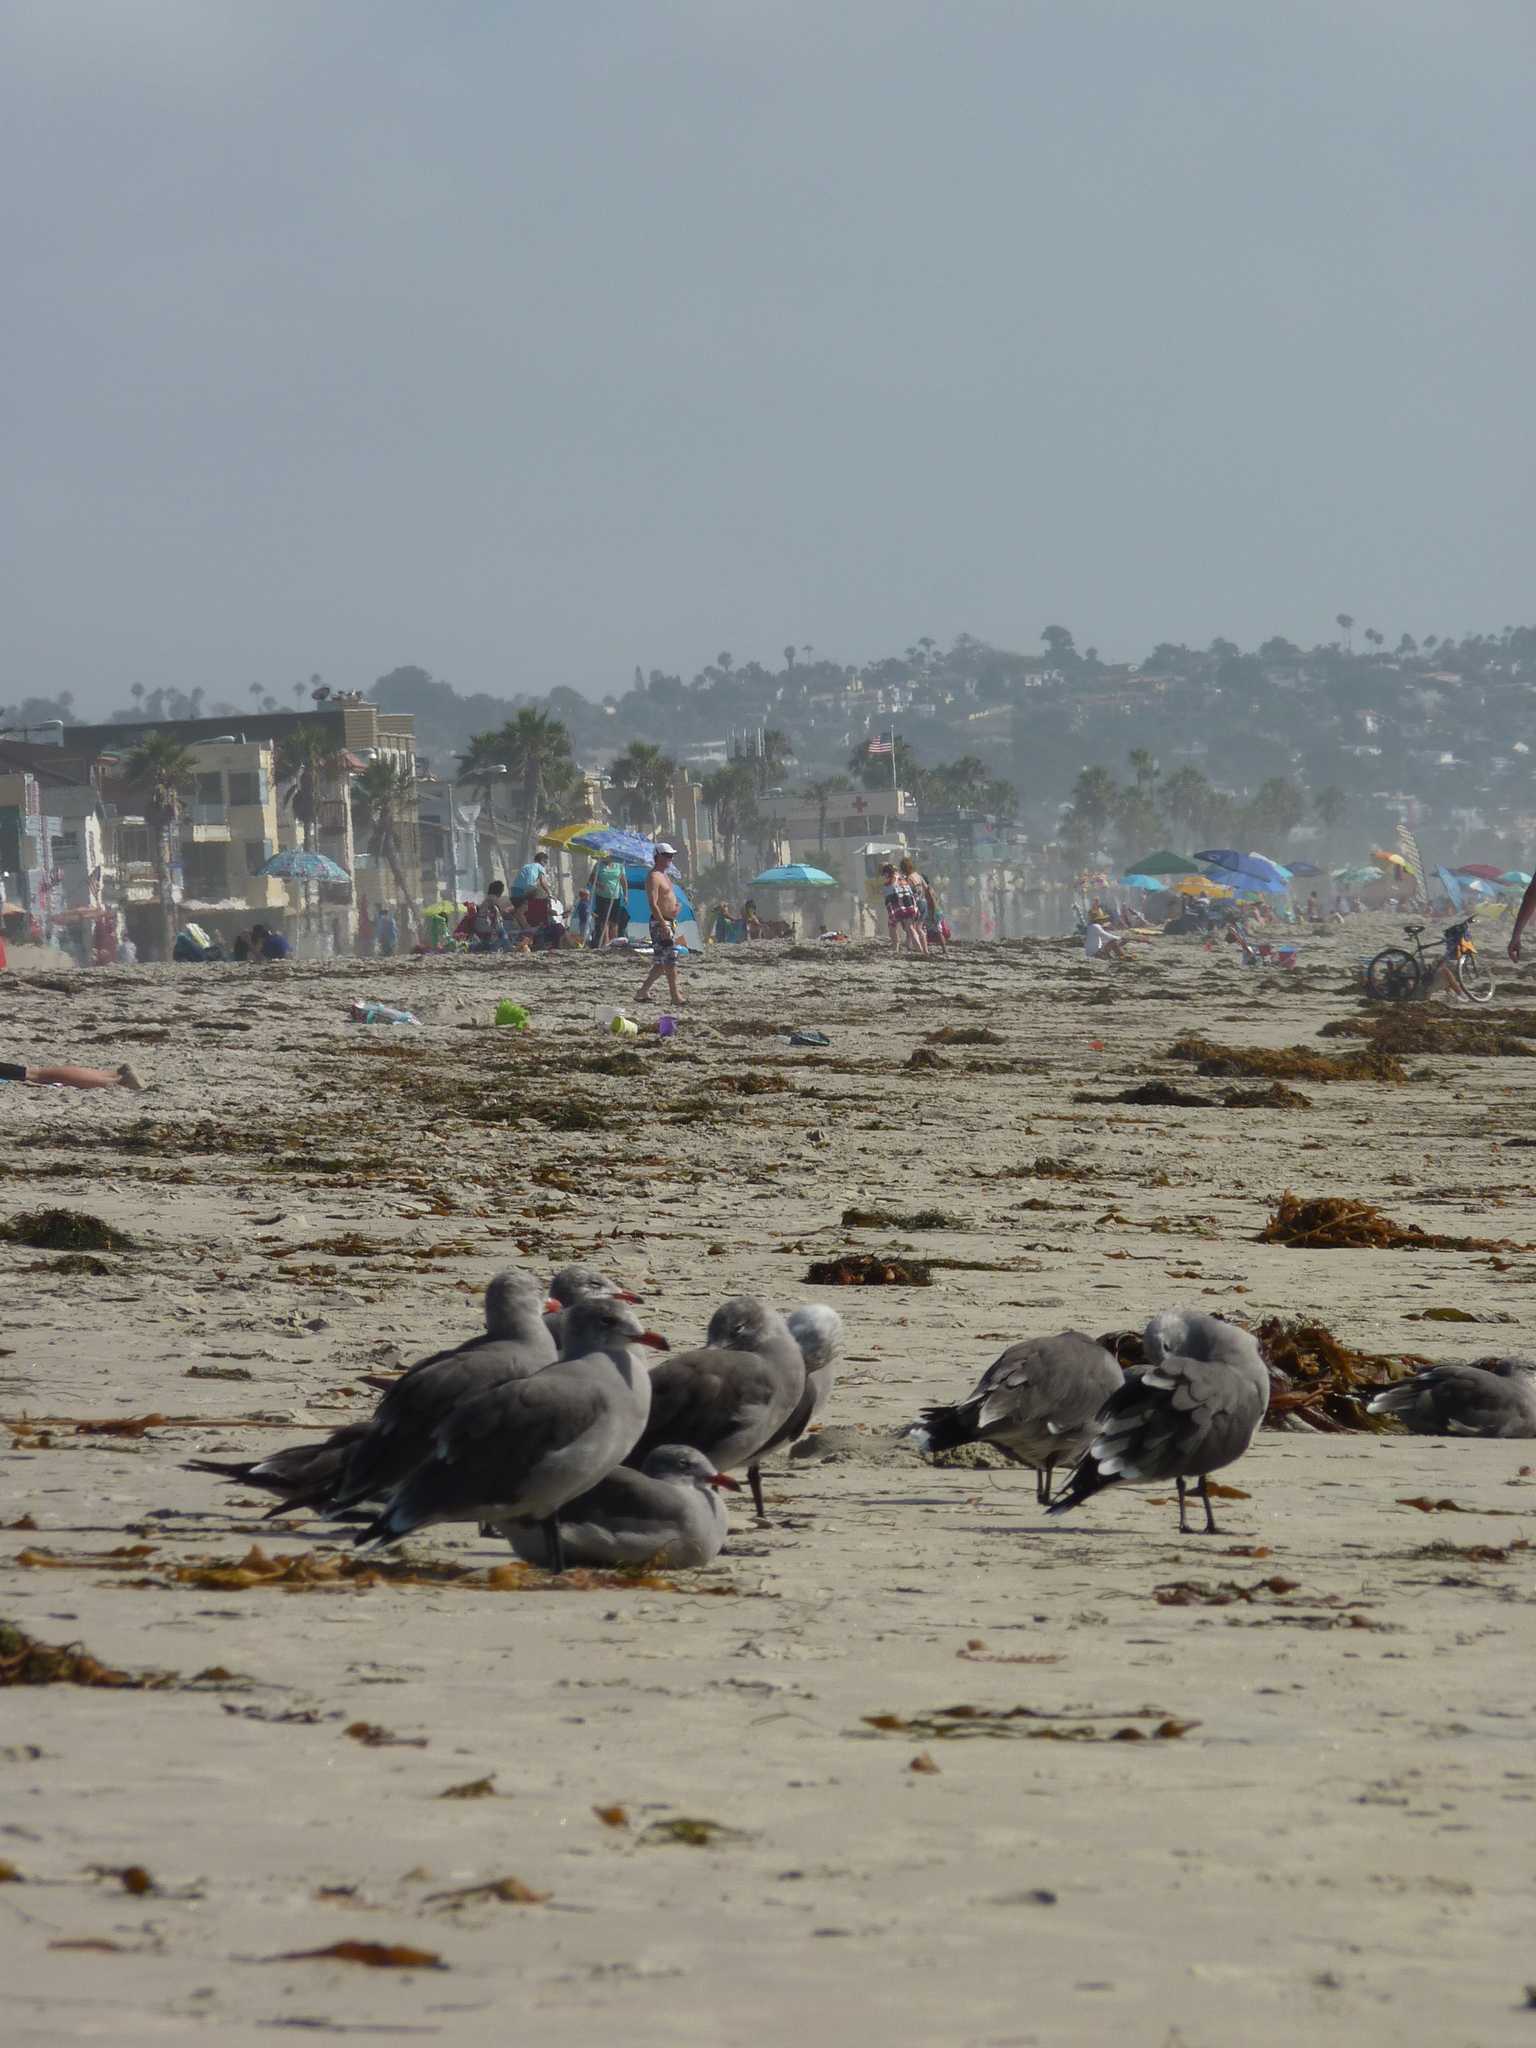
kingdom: Animalia
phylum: Chordata
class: Aves
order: Charadriiformes
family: Laridae
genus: Larus
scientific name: Larus heermanni
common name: Heermann's gull
